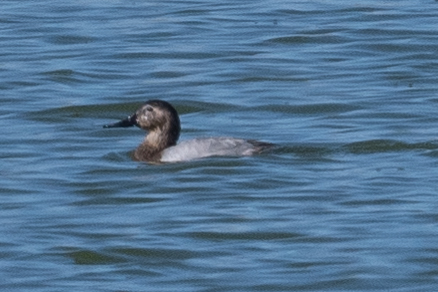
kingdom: Animalia
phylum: Chordata
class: Aves
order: Anseriformes
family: Anatidae
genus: Aythya
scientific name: Aythya valisineria
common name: Canvasback
